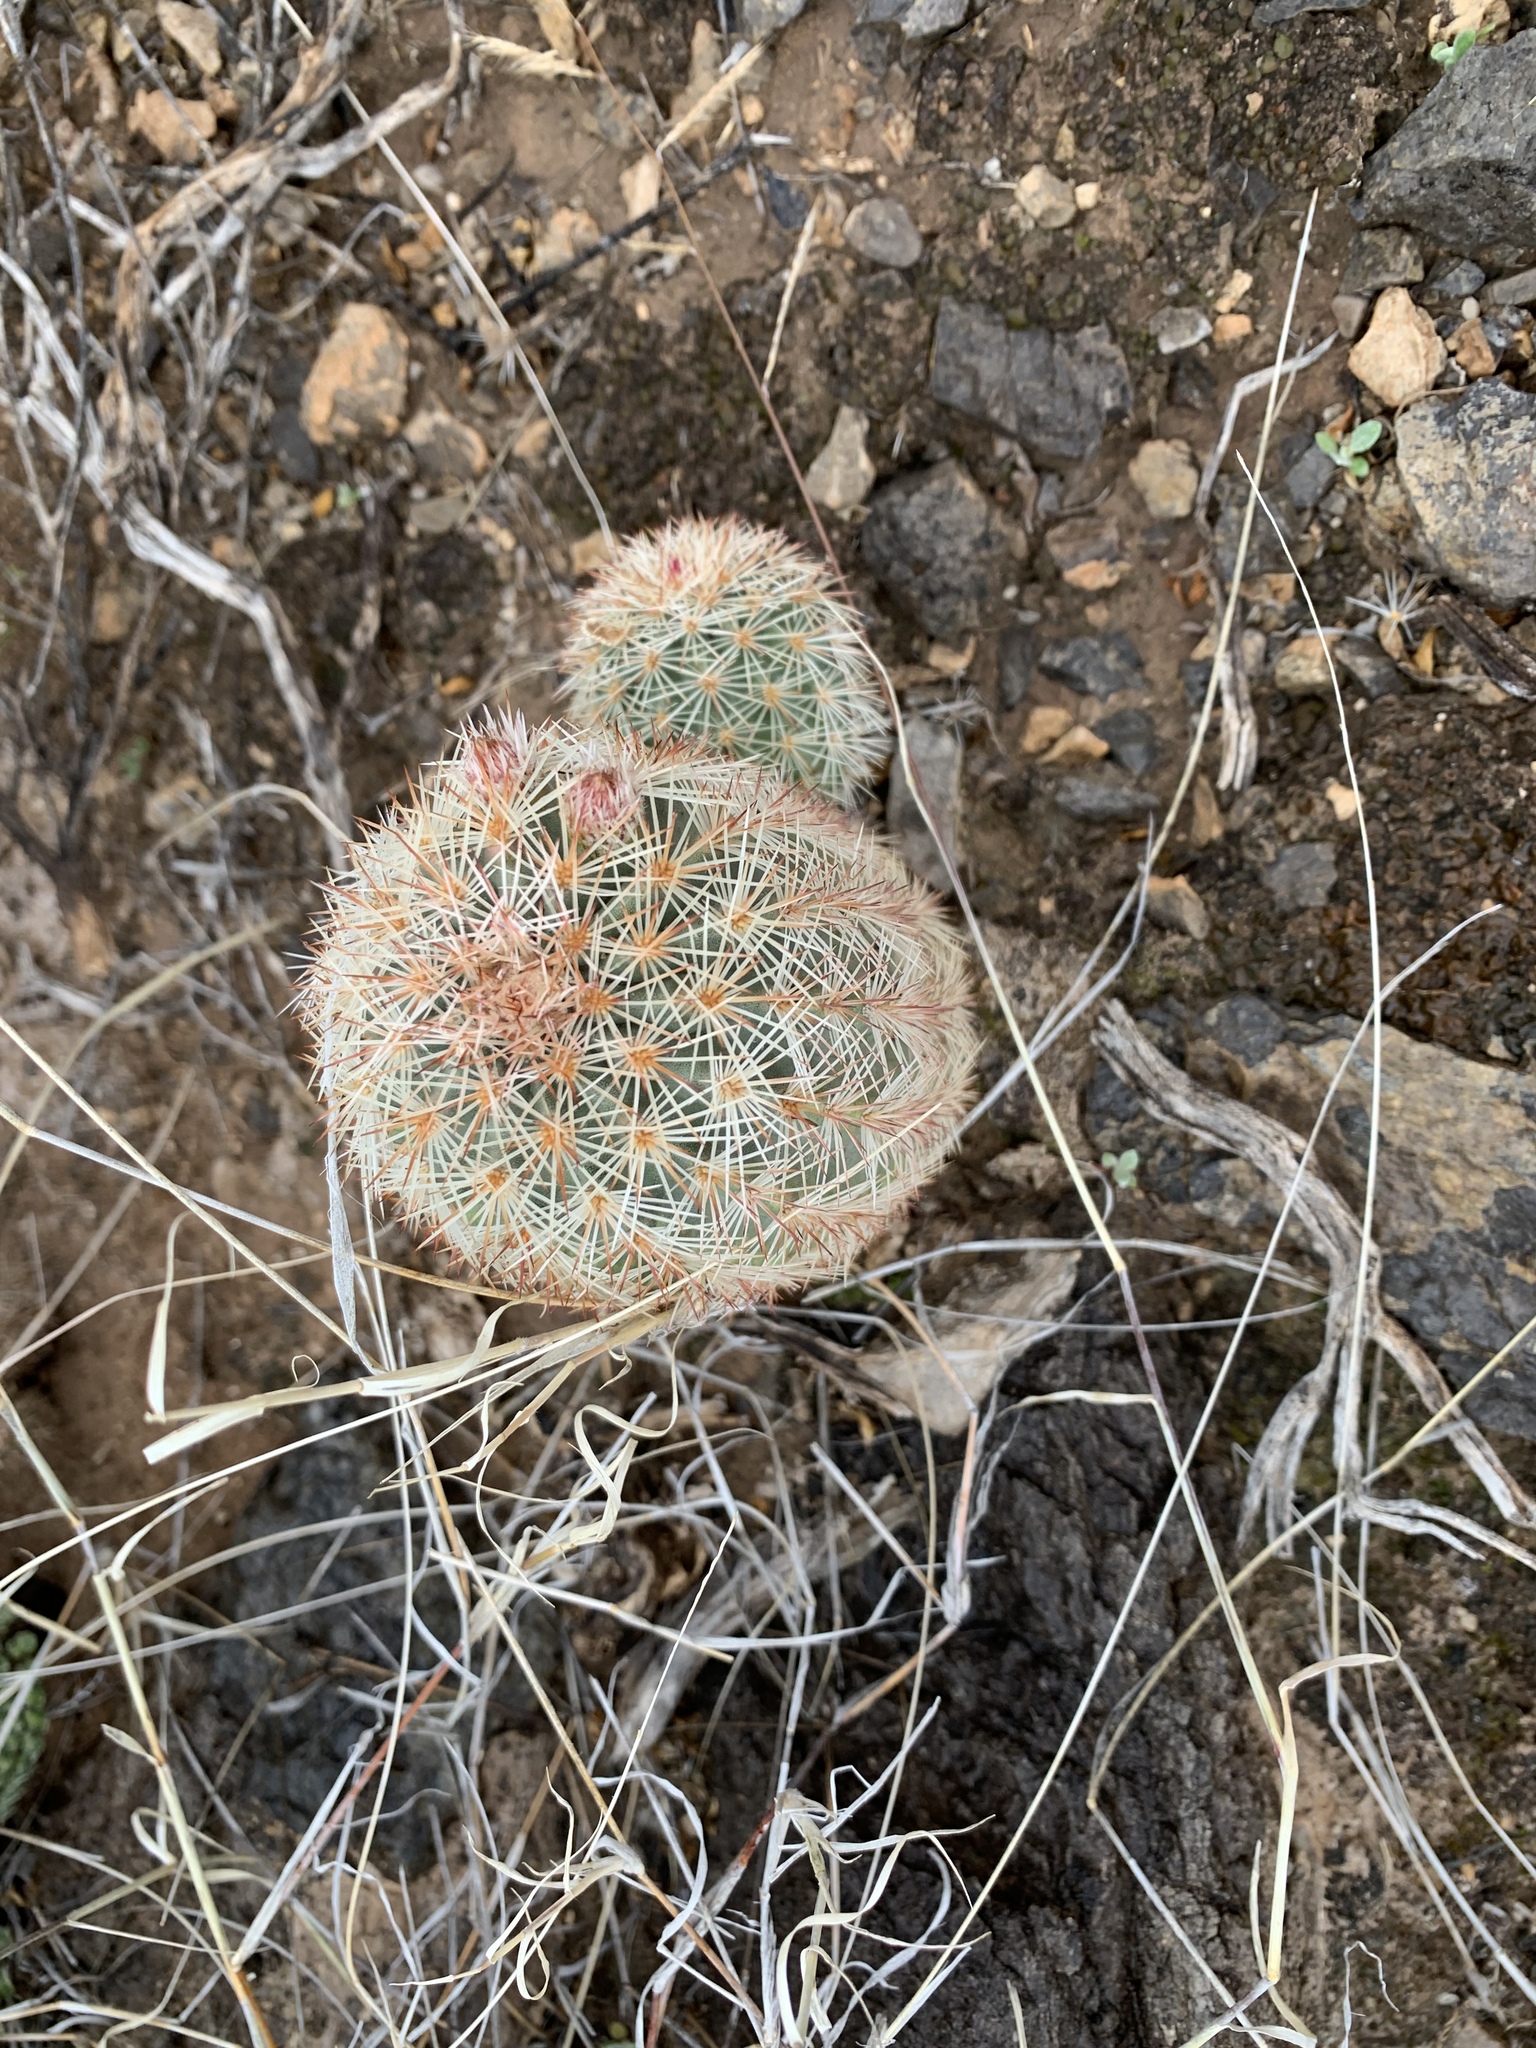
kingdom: Plantae
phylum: Tracheophyta
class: Magnoliopsida
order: Caryophyllales
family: Cactaceae
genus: Echinocereus
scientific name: Echinocereus dasyacanthus
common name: Spiny hedgehog cactus
